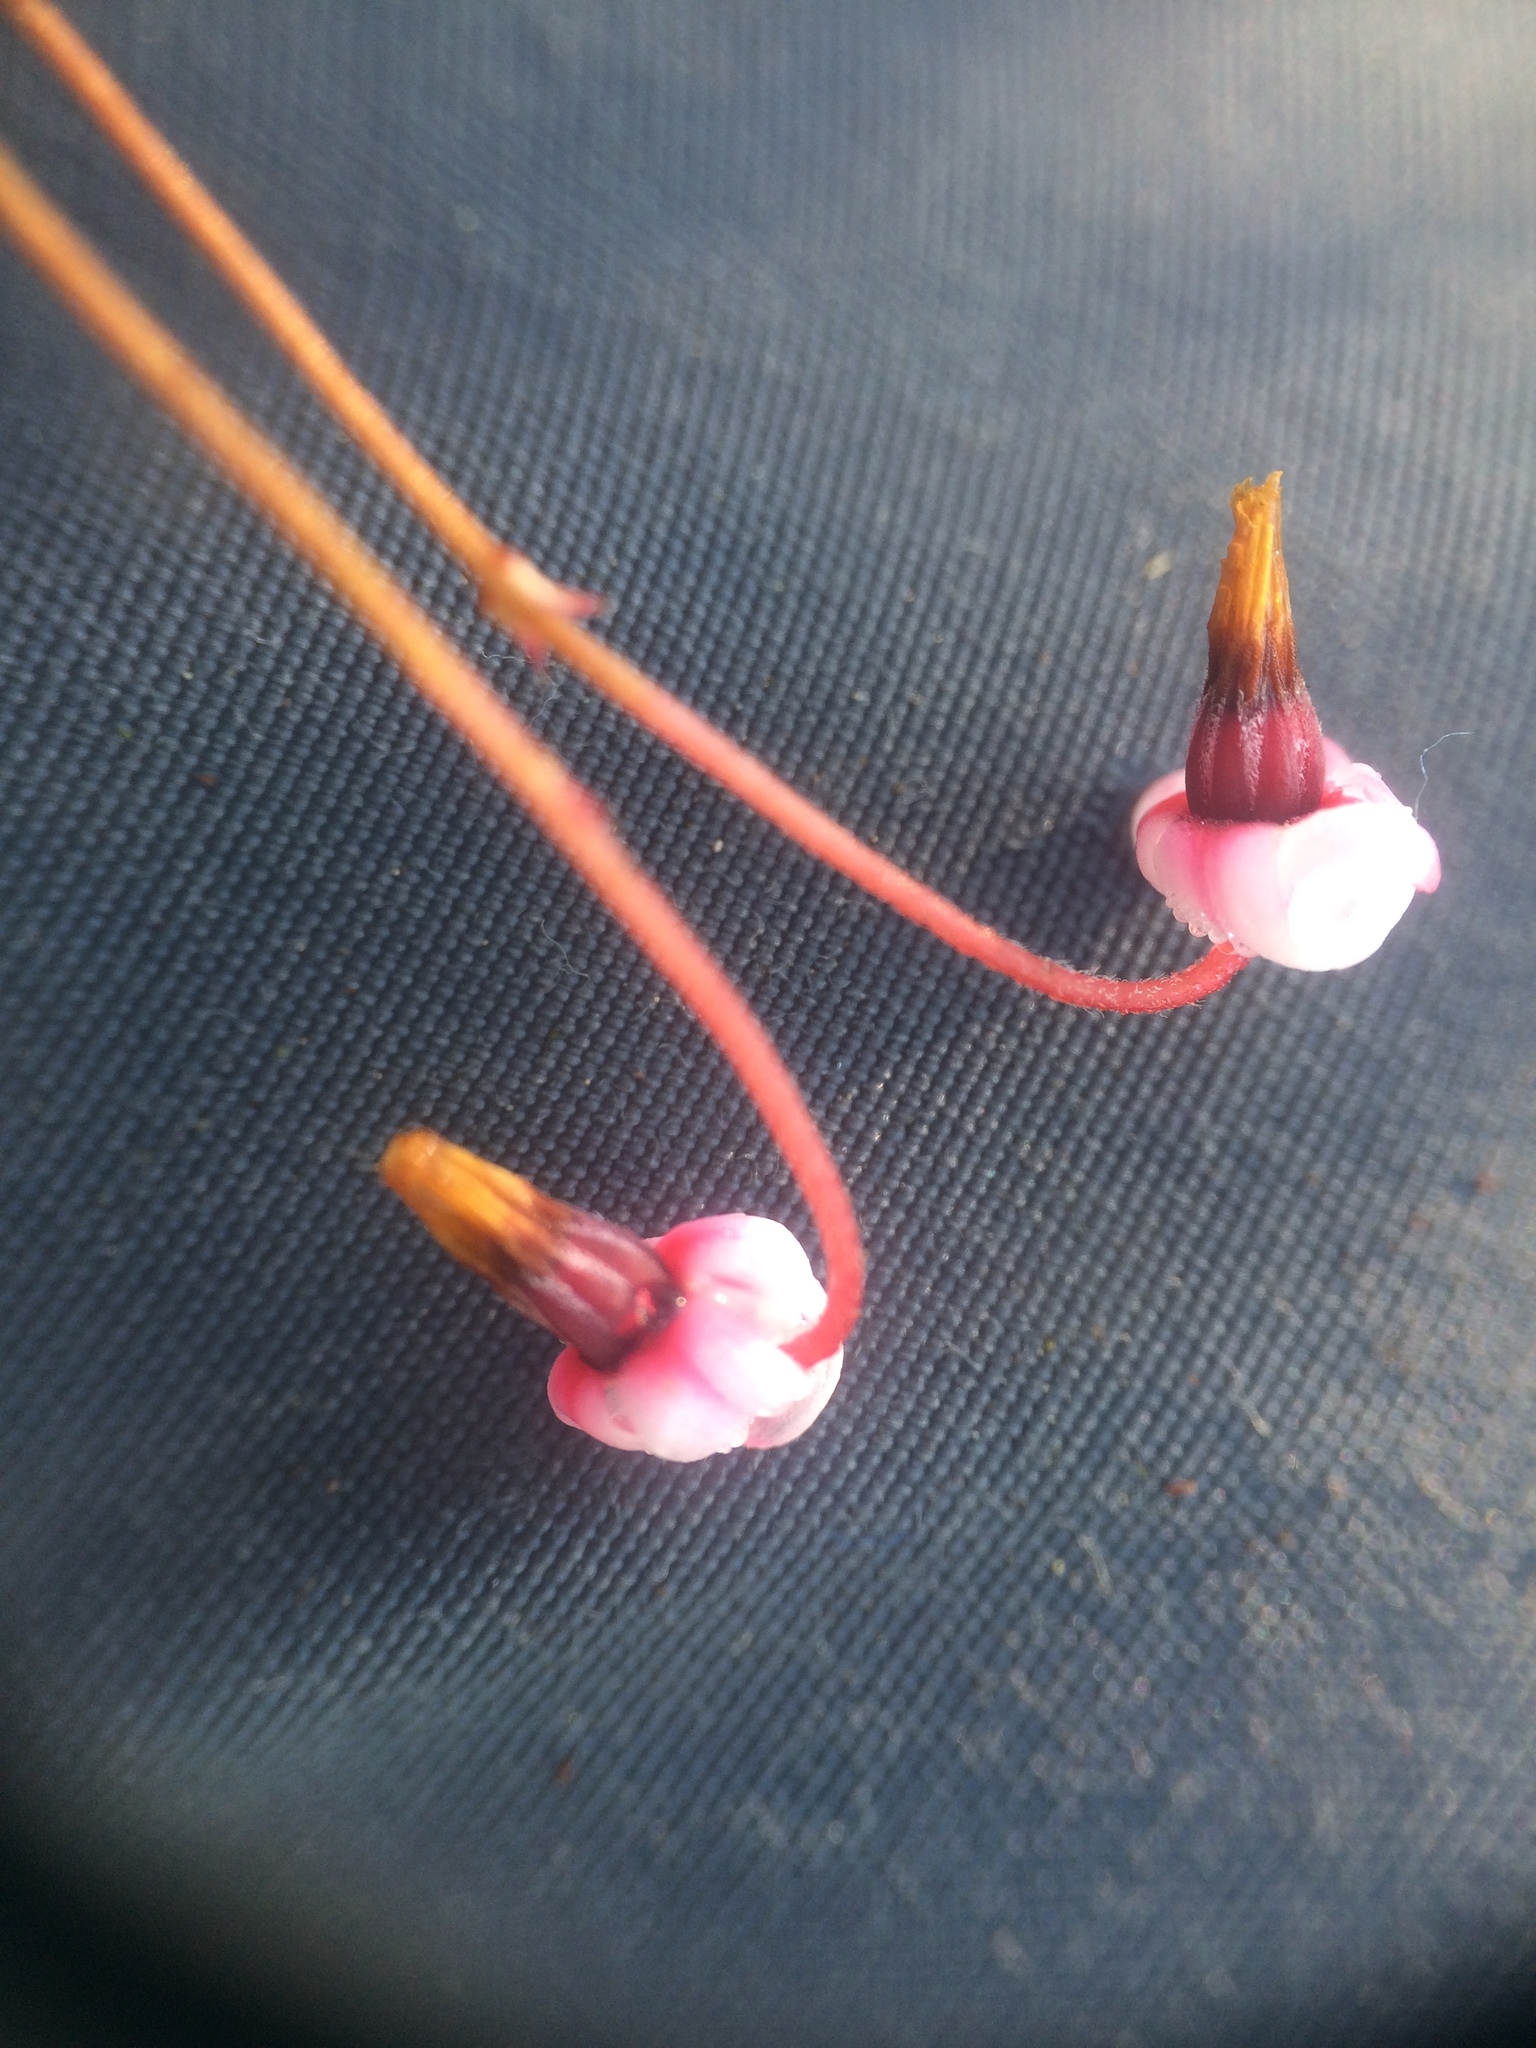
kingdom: Plantae
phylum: Tracheophyta
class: Magnoliopsida
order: Ericales
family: Ericaceae
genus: Vaccinium
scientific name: Vaccinium oxycoccos
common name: Cranberry
